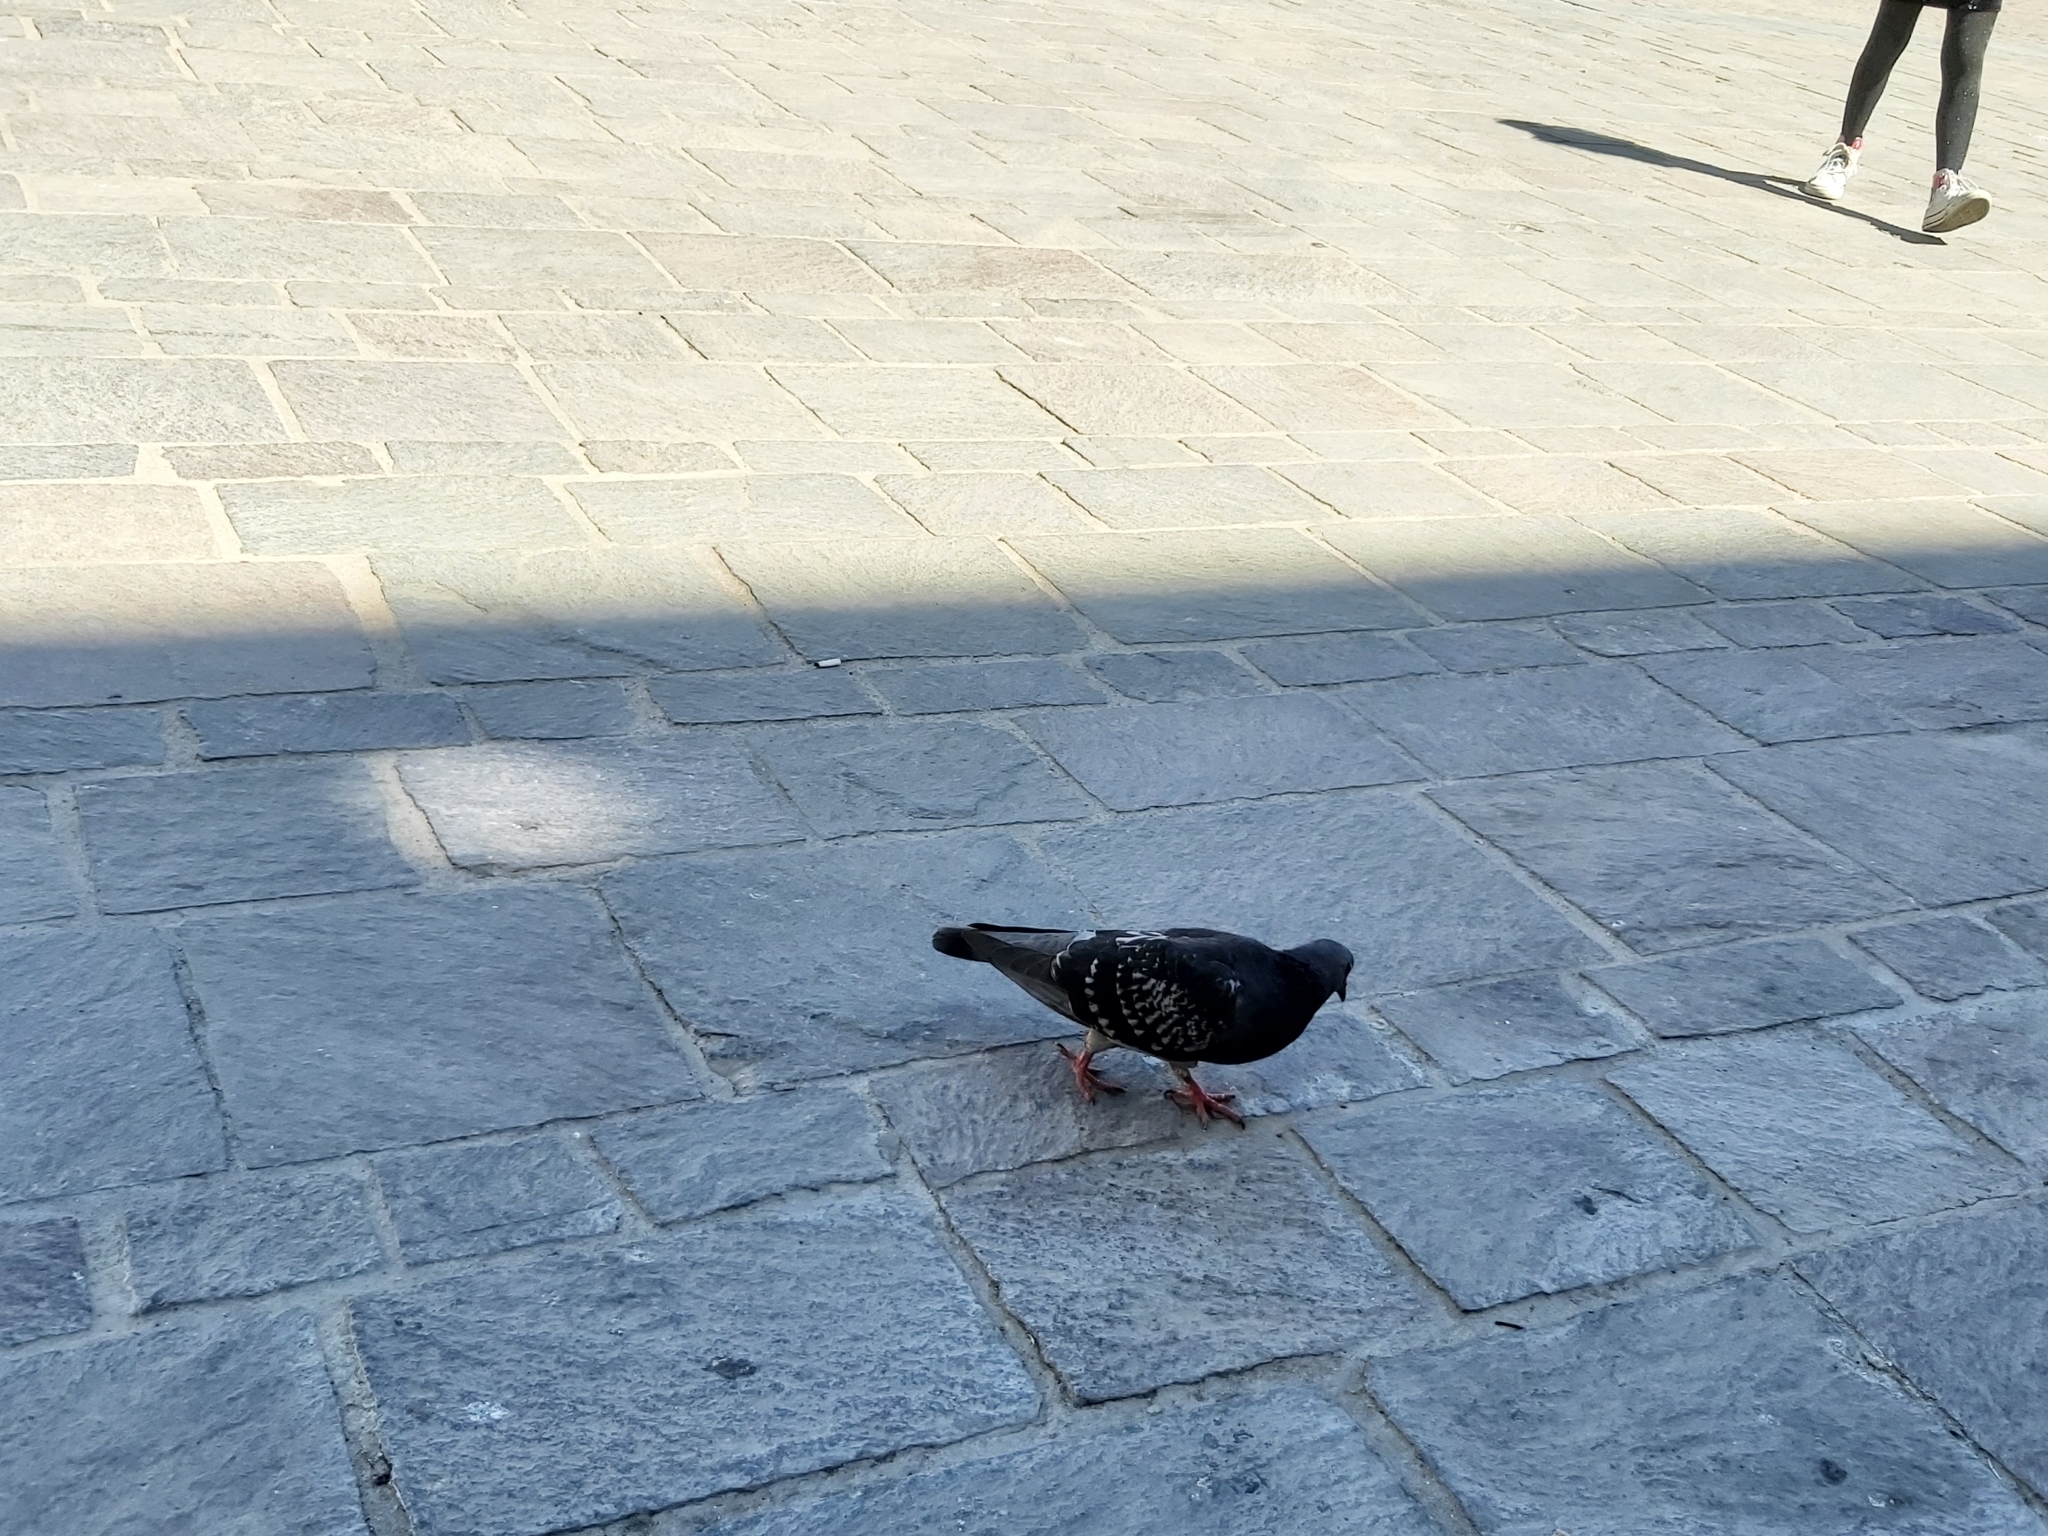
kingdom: Animalia
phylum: Chordata
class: Aves
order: Columbiformes
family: Columbidae
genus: Columba
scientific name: Columba livia
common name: Rock pigeon
